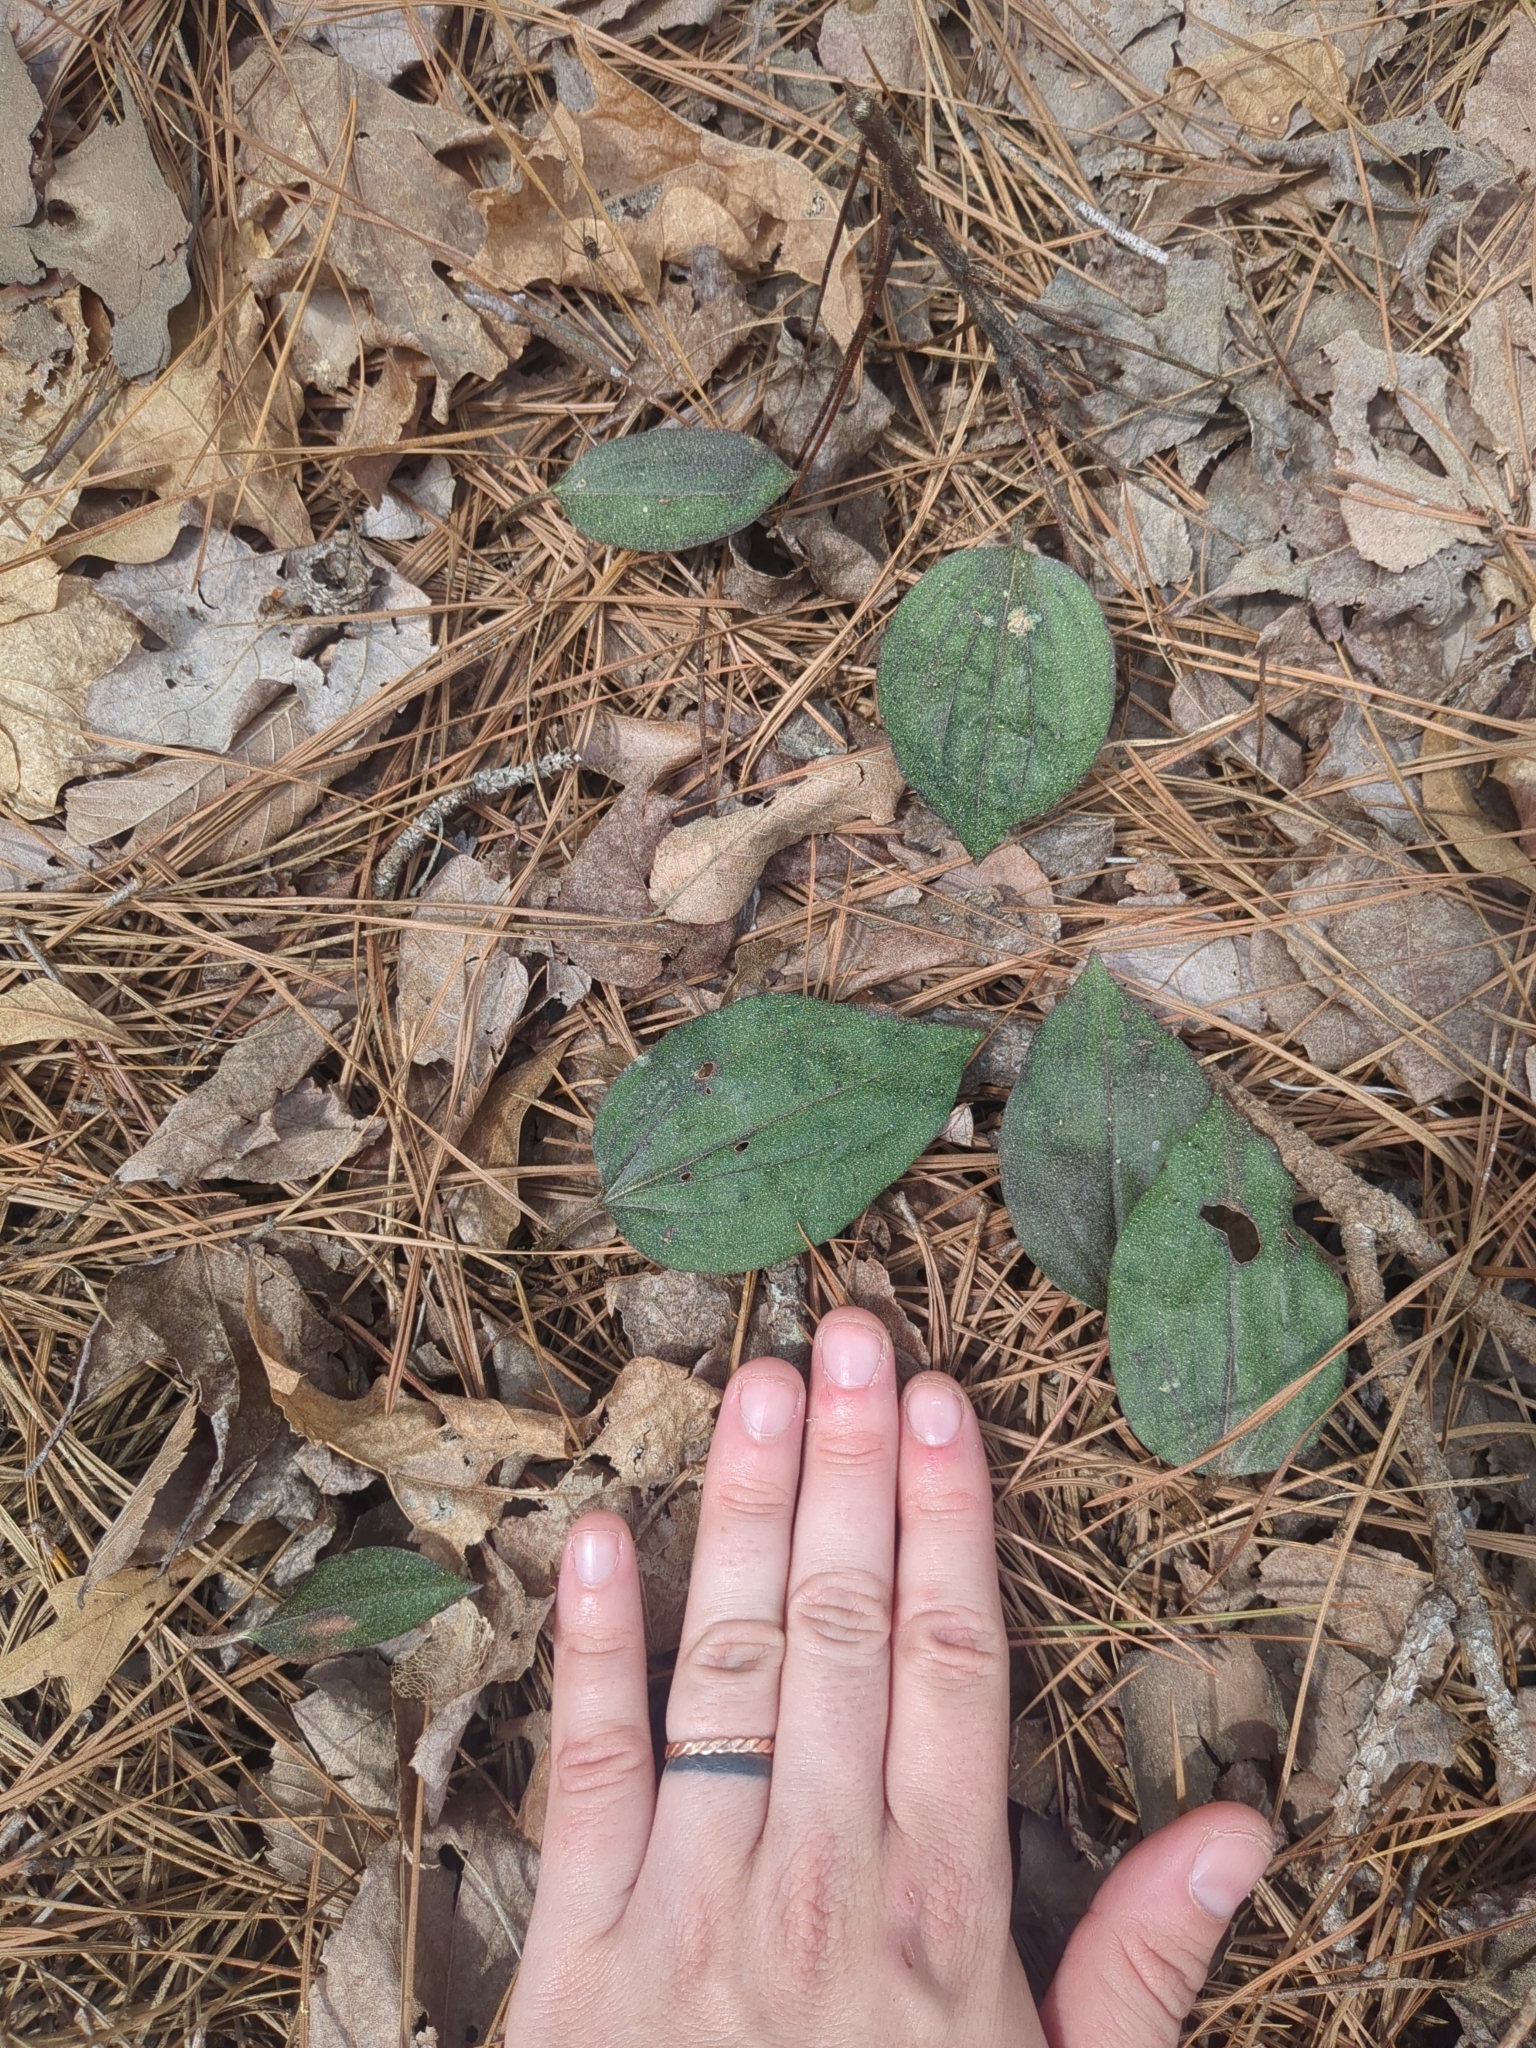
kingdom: Plantae
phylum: Tracheophyta
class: Liliopsida
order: Asparagales
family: Orchidaceae
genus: Tipularia
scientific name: Tipularia discolor
